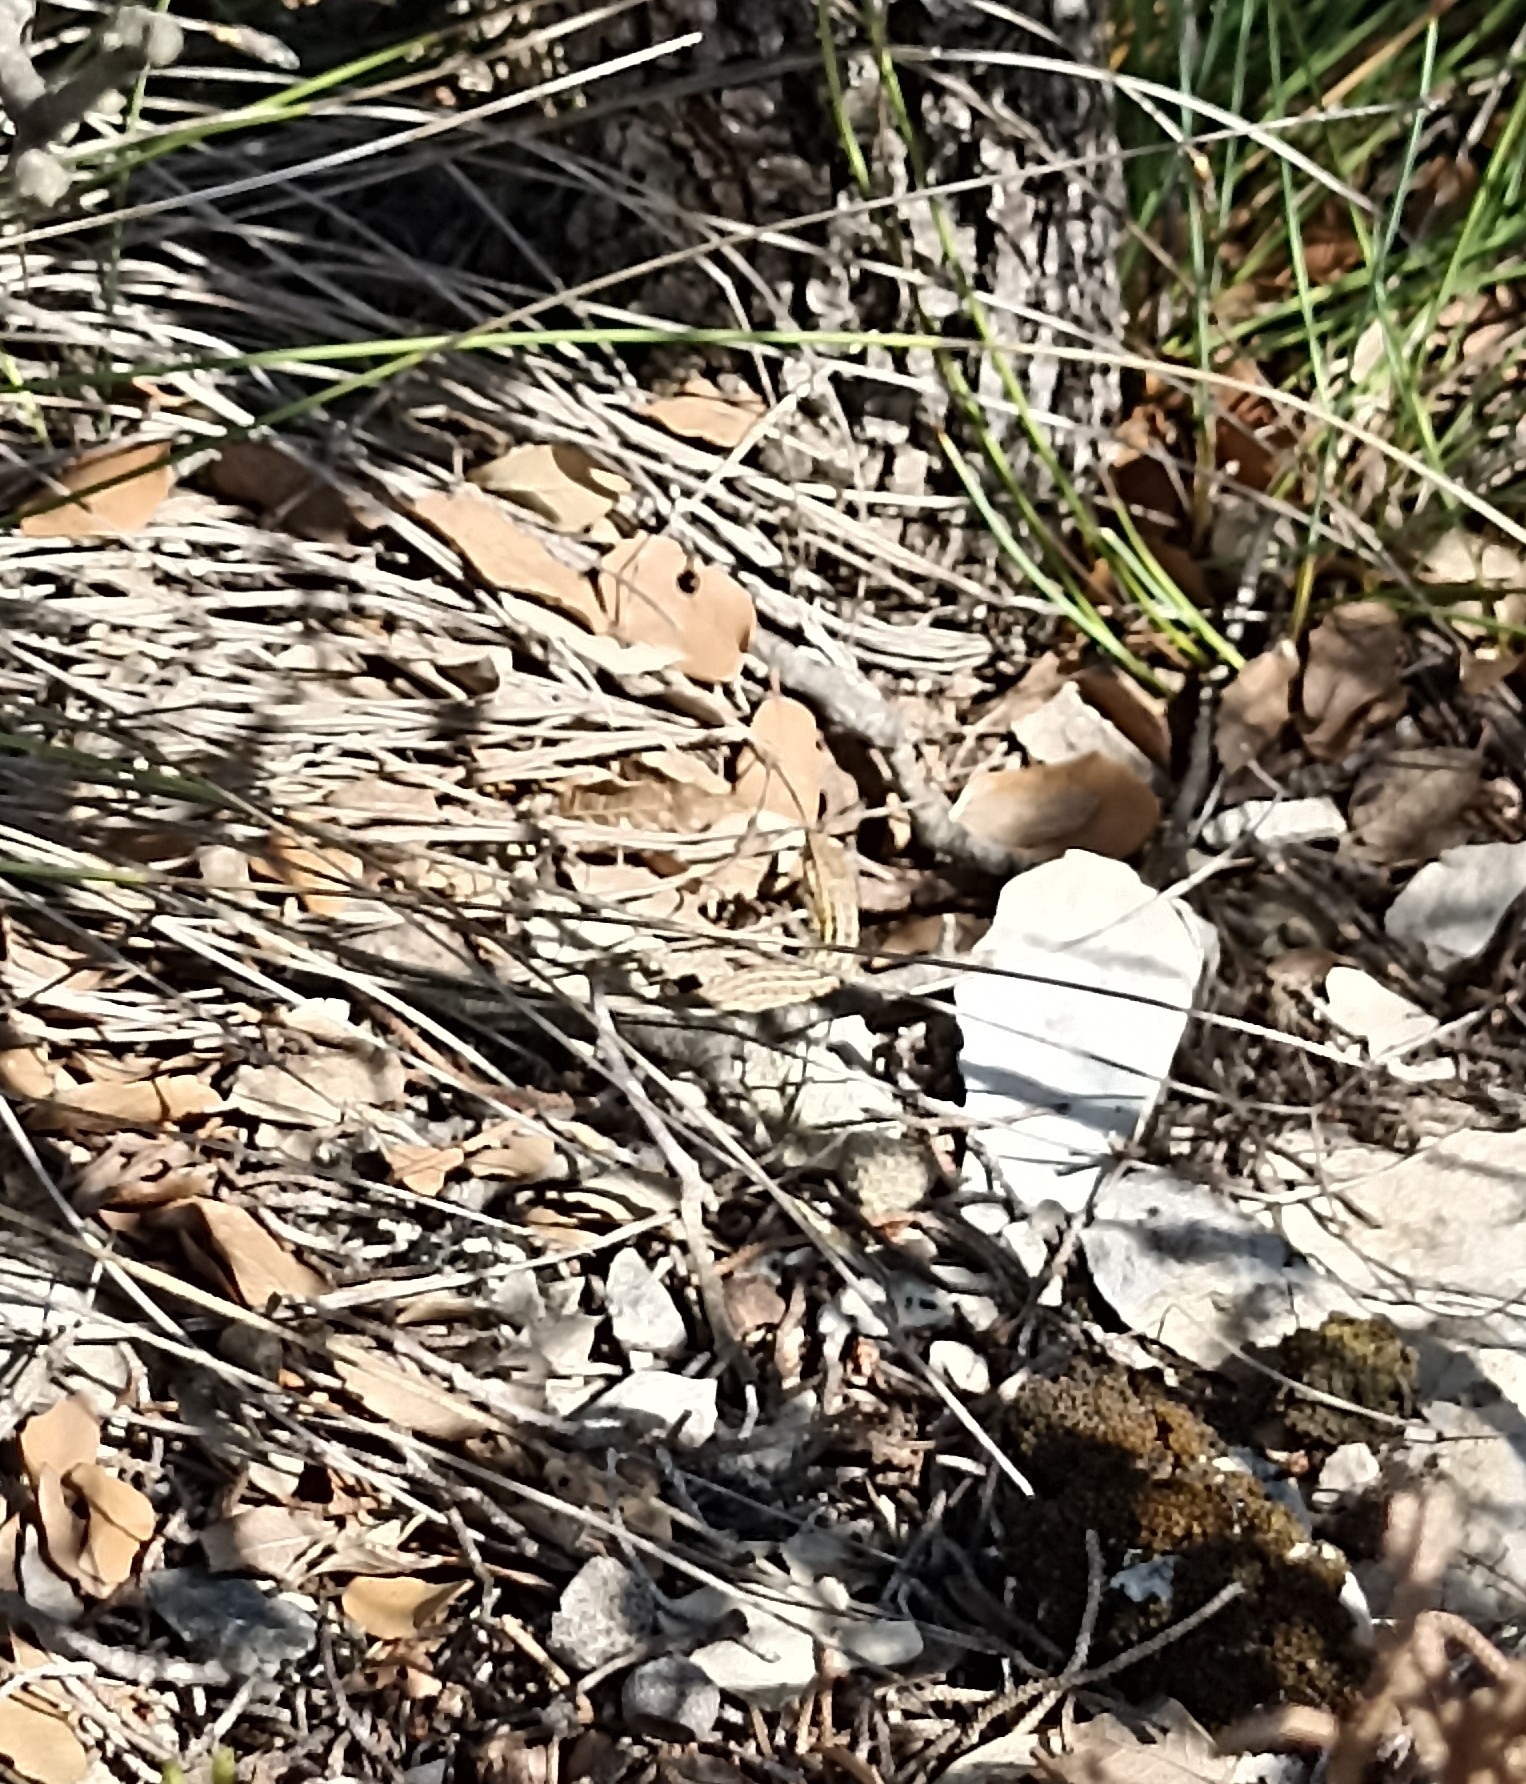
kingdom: Animalia
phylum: Chordata
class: Squamata
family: Lacertidae
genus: Psammodromus
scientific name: Psammodromus edwarsianus
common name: East iberian psammodromus
